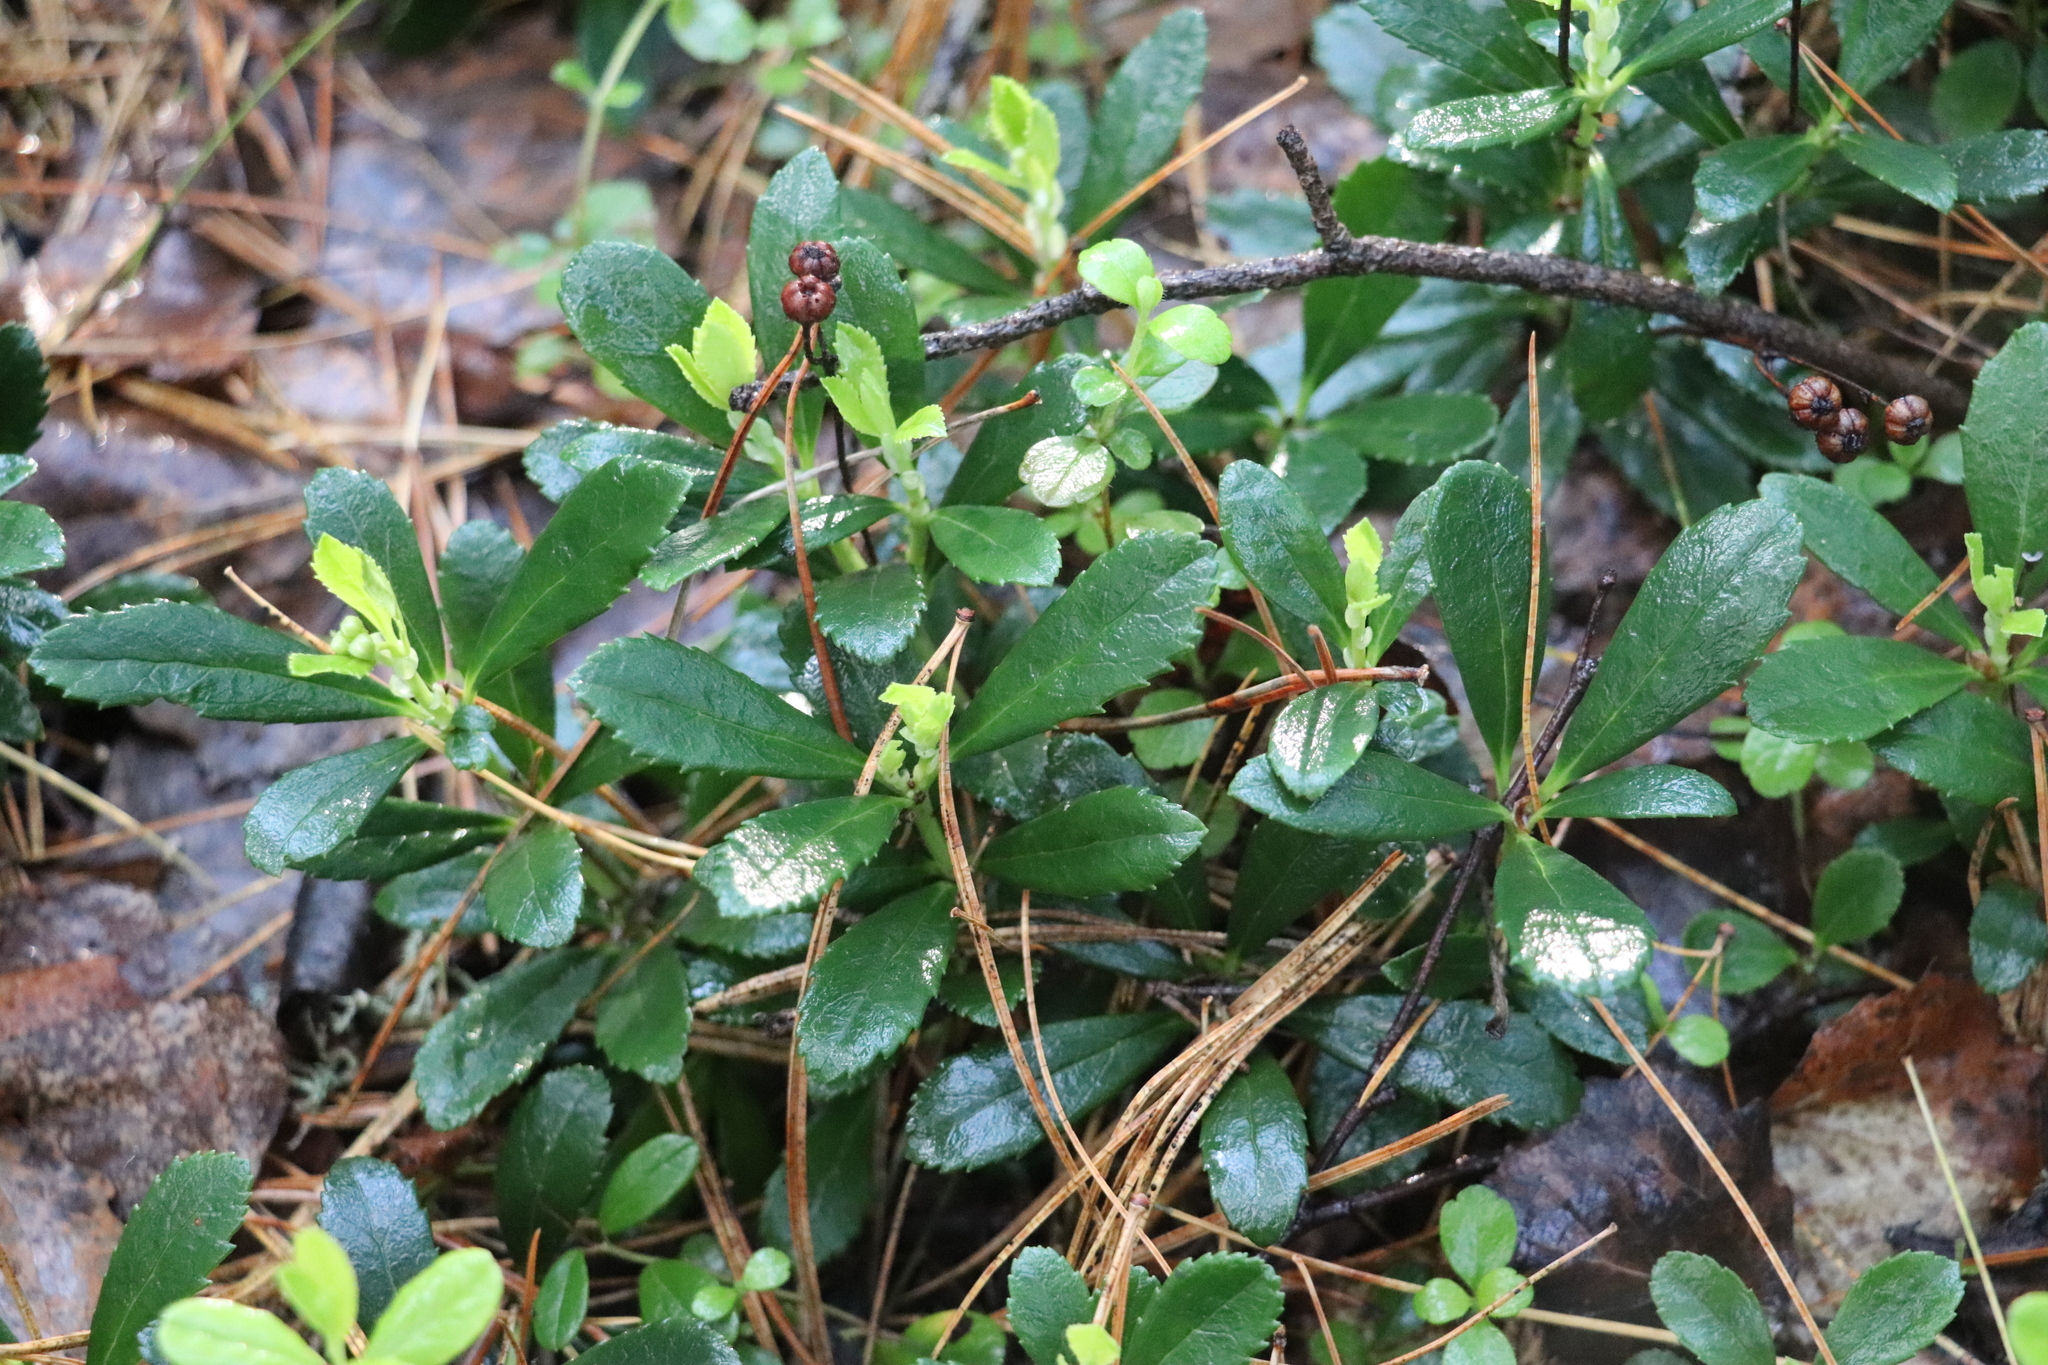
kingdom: Plantae
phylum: Tracheophyta
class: Magnoliopsida
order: Ericales
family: Ericaceae
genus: Chimaphila
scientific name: Chimaphila umbellata
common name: Pipsissewa
